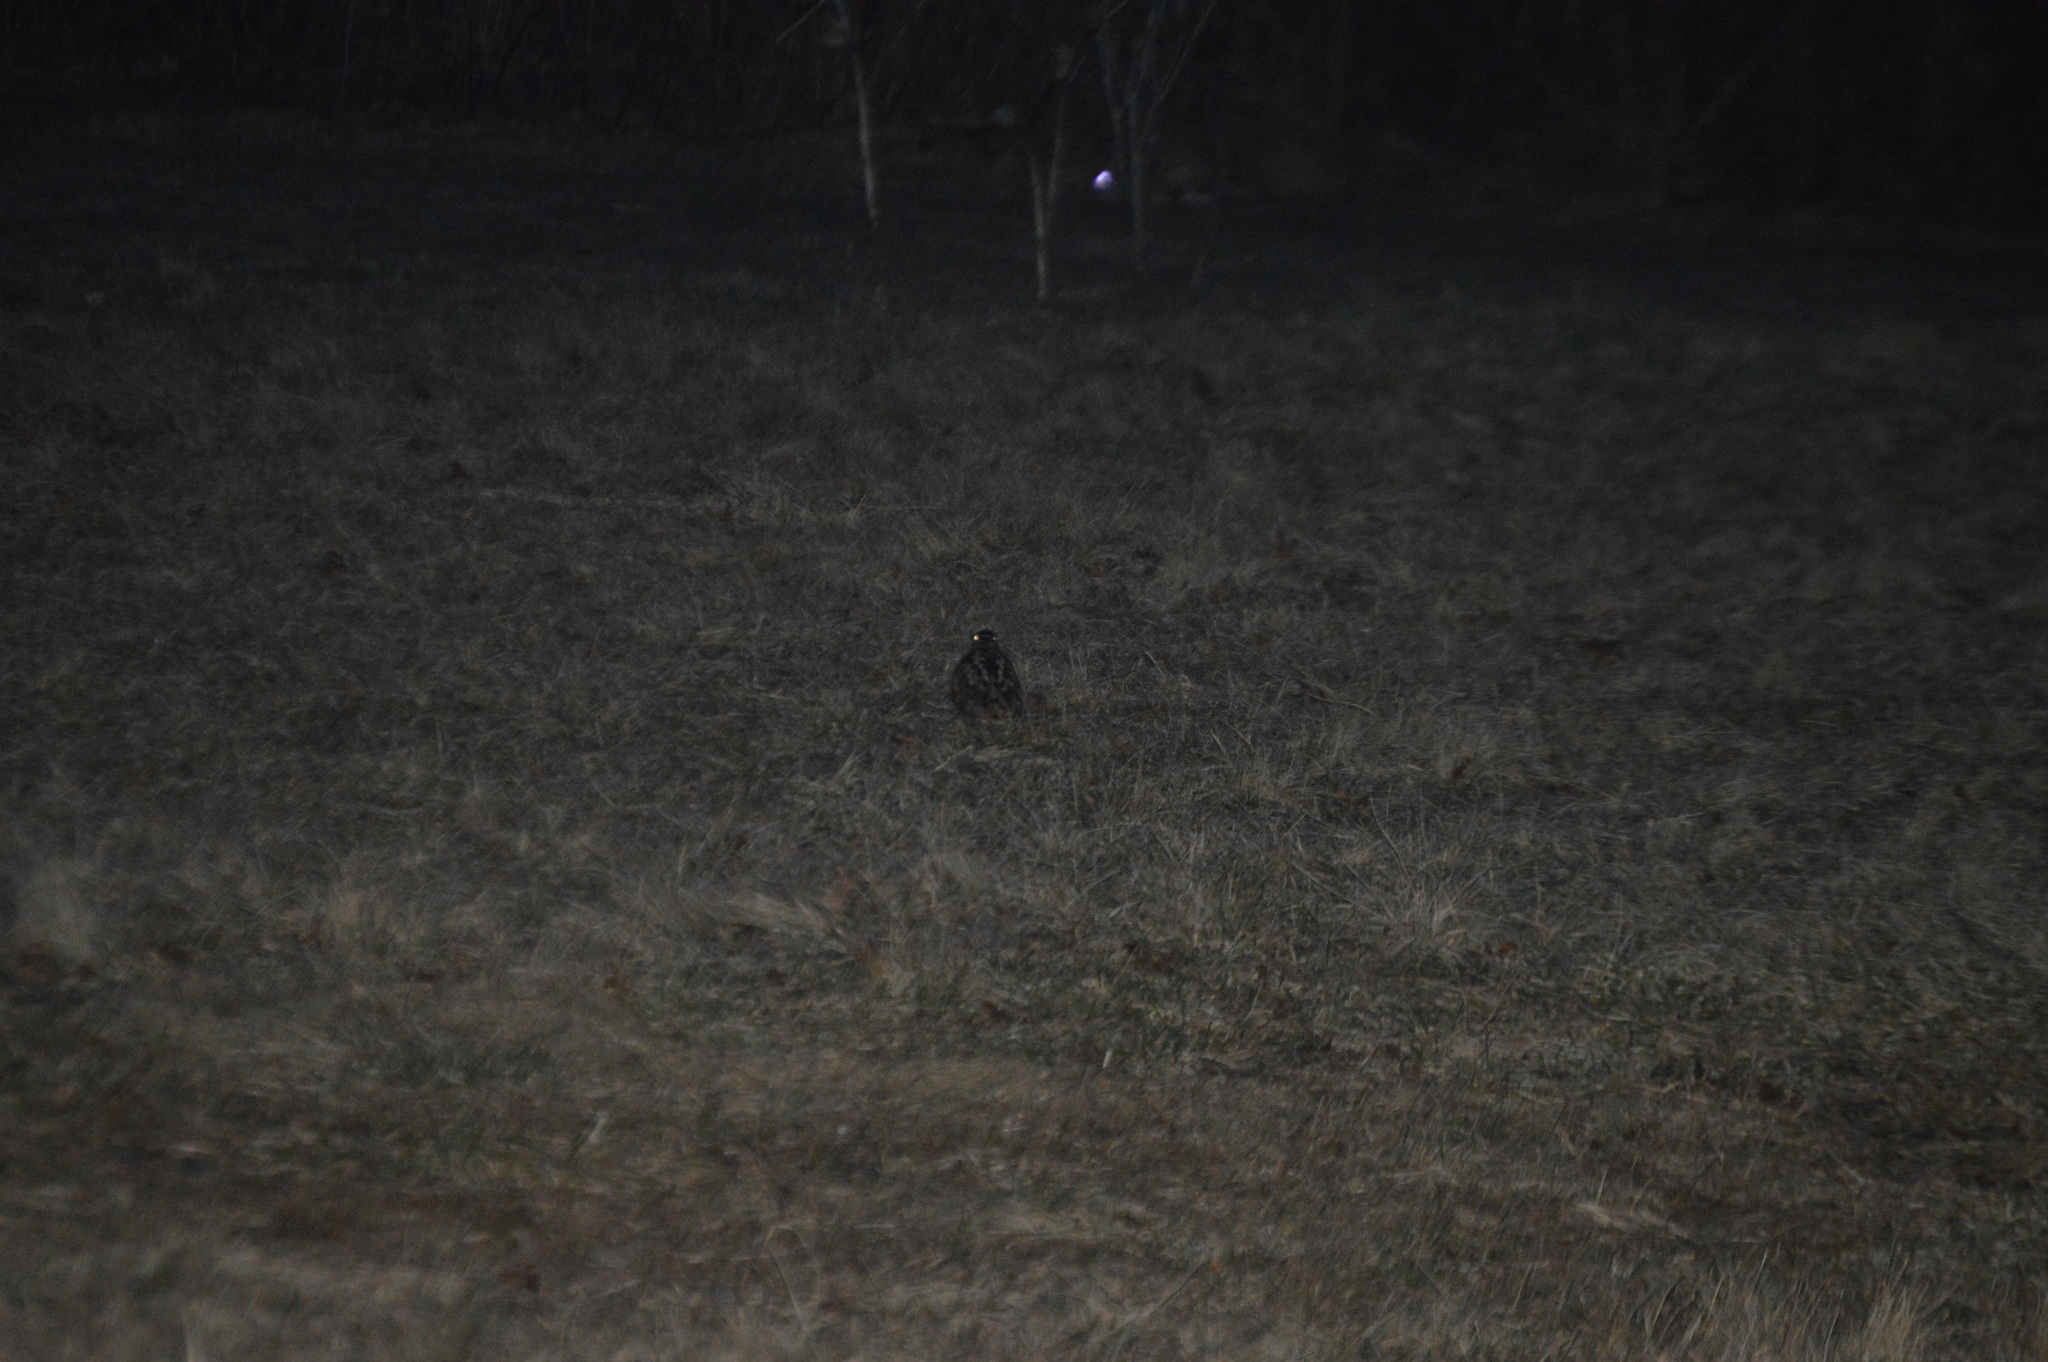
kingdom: Animalia
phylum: Chordata
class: Aves
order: Charadriiformes
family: Scolopacidae
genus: Scolopax
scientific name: Scolopax minor
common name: American woodcock
